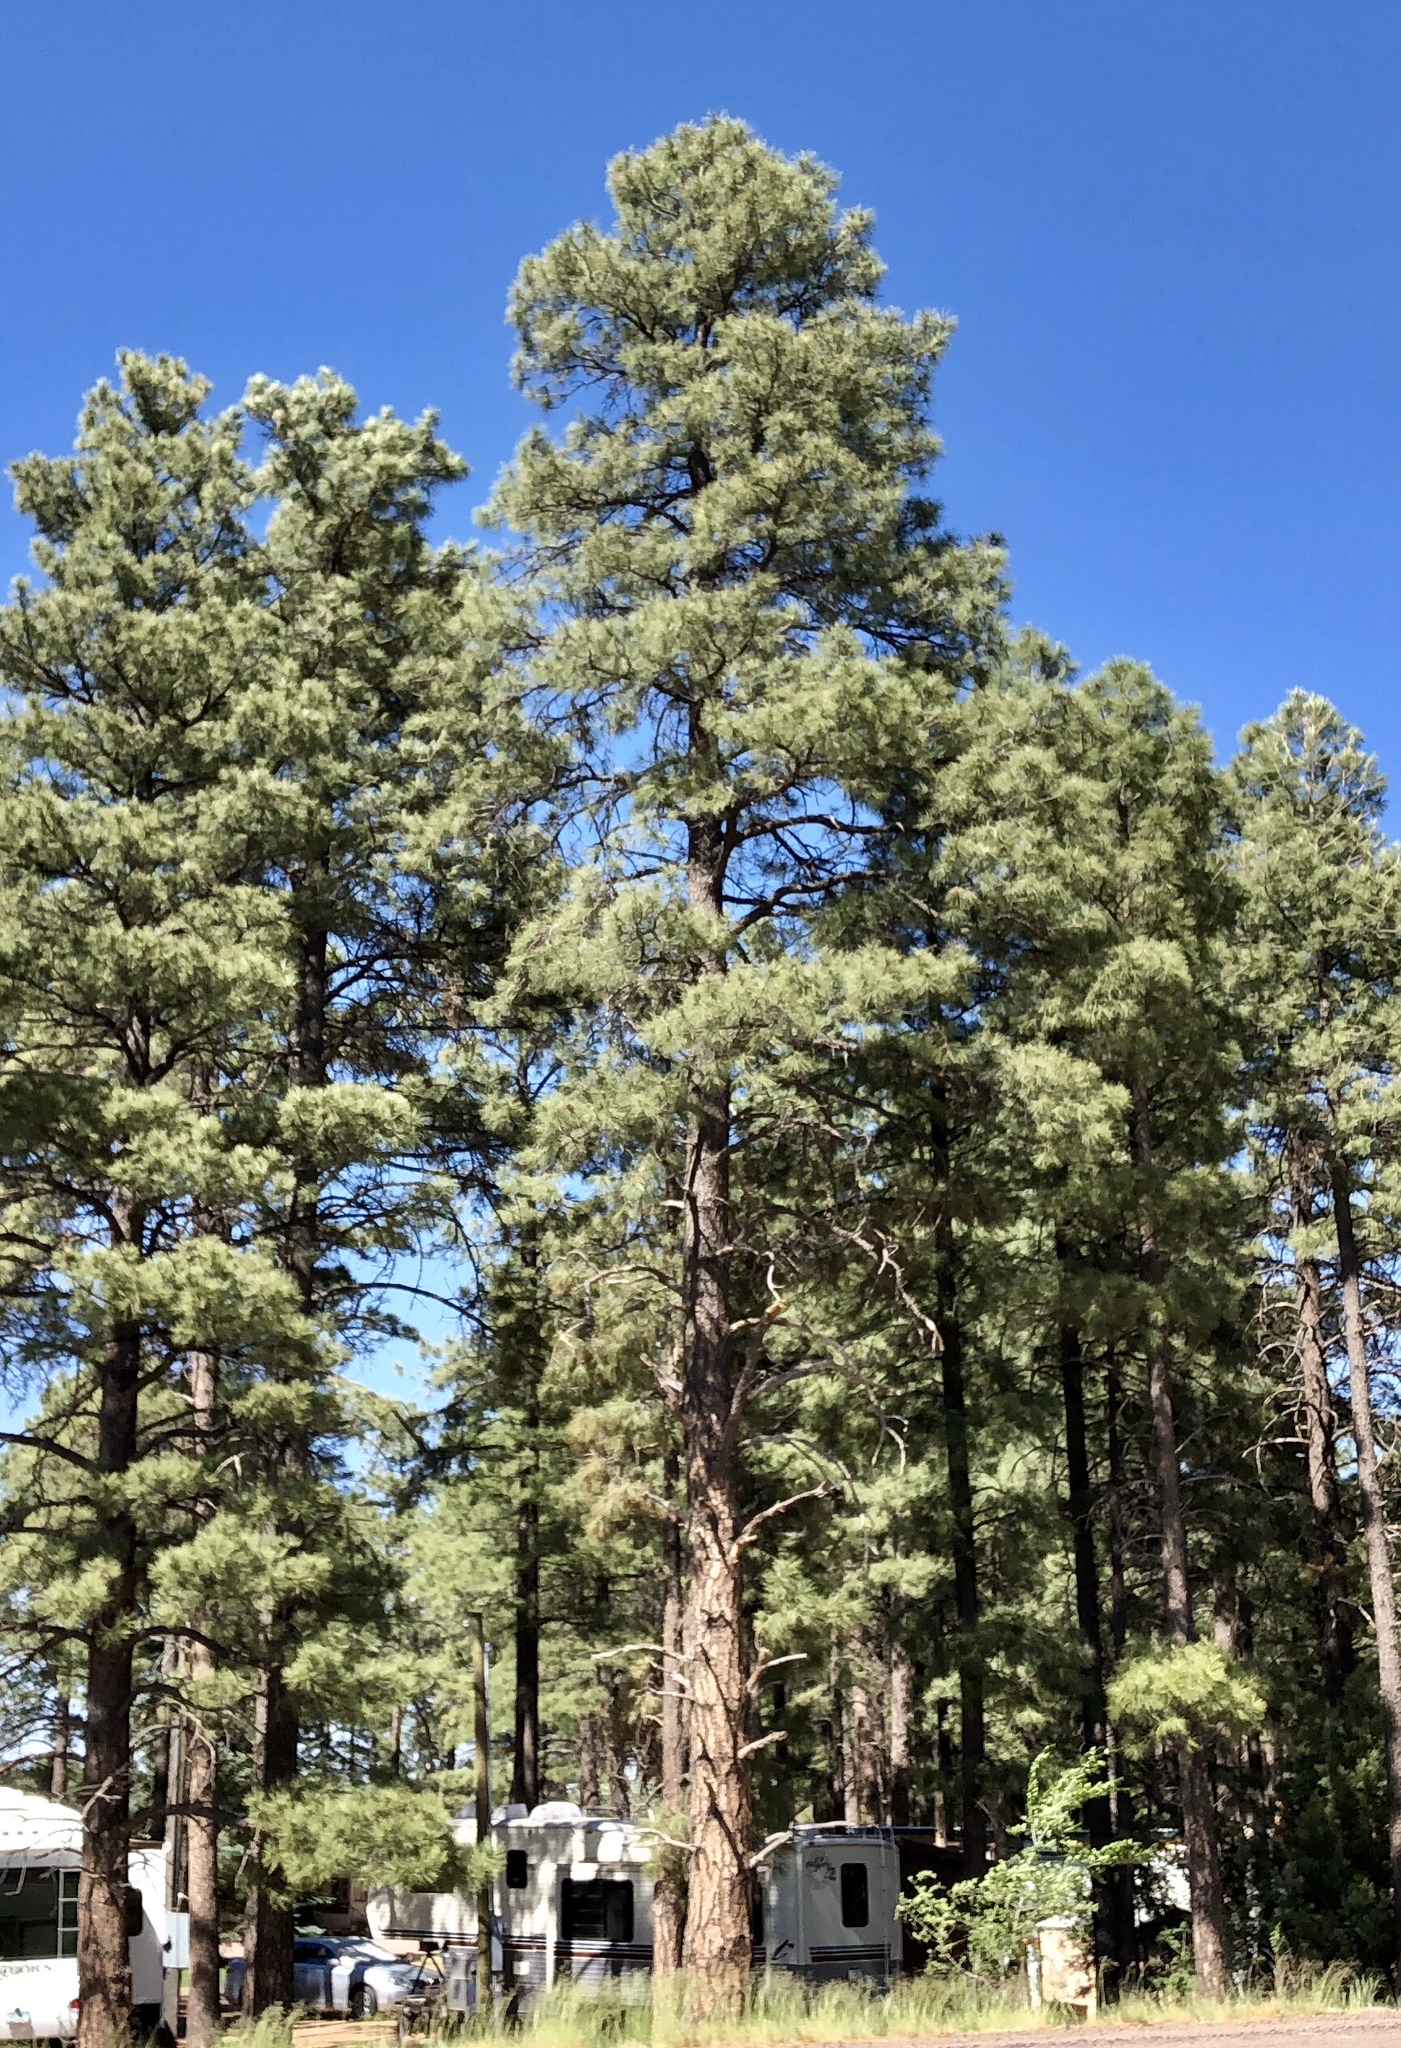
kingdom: Plantae
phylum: Tracheophyta
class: Pinopsida
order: Pinales
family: Pinaceae
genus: Pinus
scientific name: Pinus ponderosa
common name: Western yellow-pine
